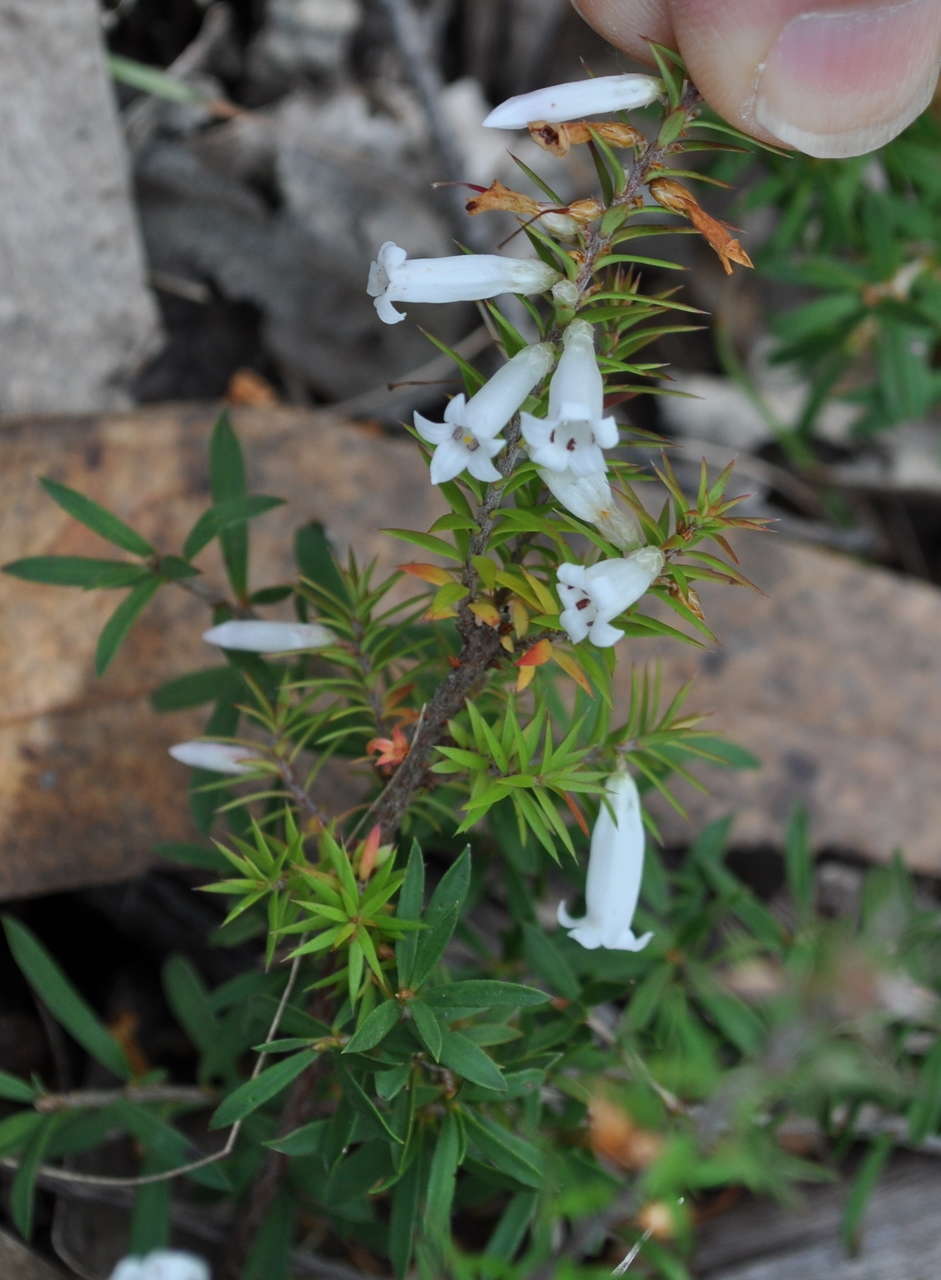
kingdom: Plantae
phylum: Tracheophyta
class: Magnoliopsida
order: Ericales
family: Ericaceae
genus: Epacris
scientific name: Epacris impressa
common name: Common-heath
